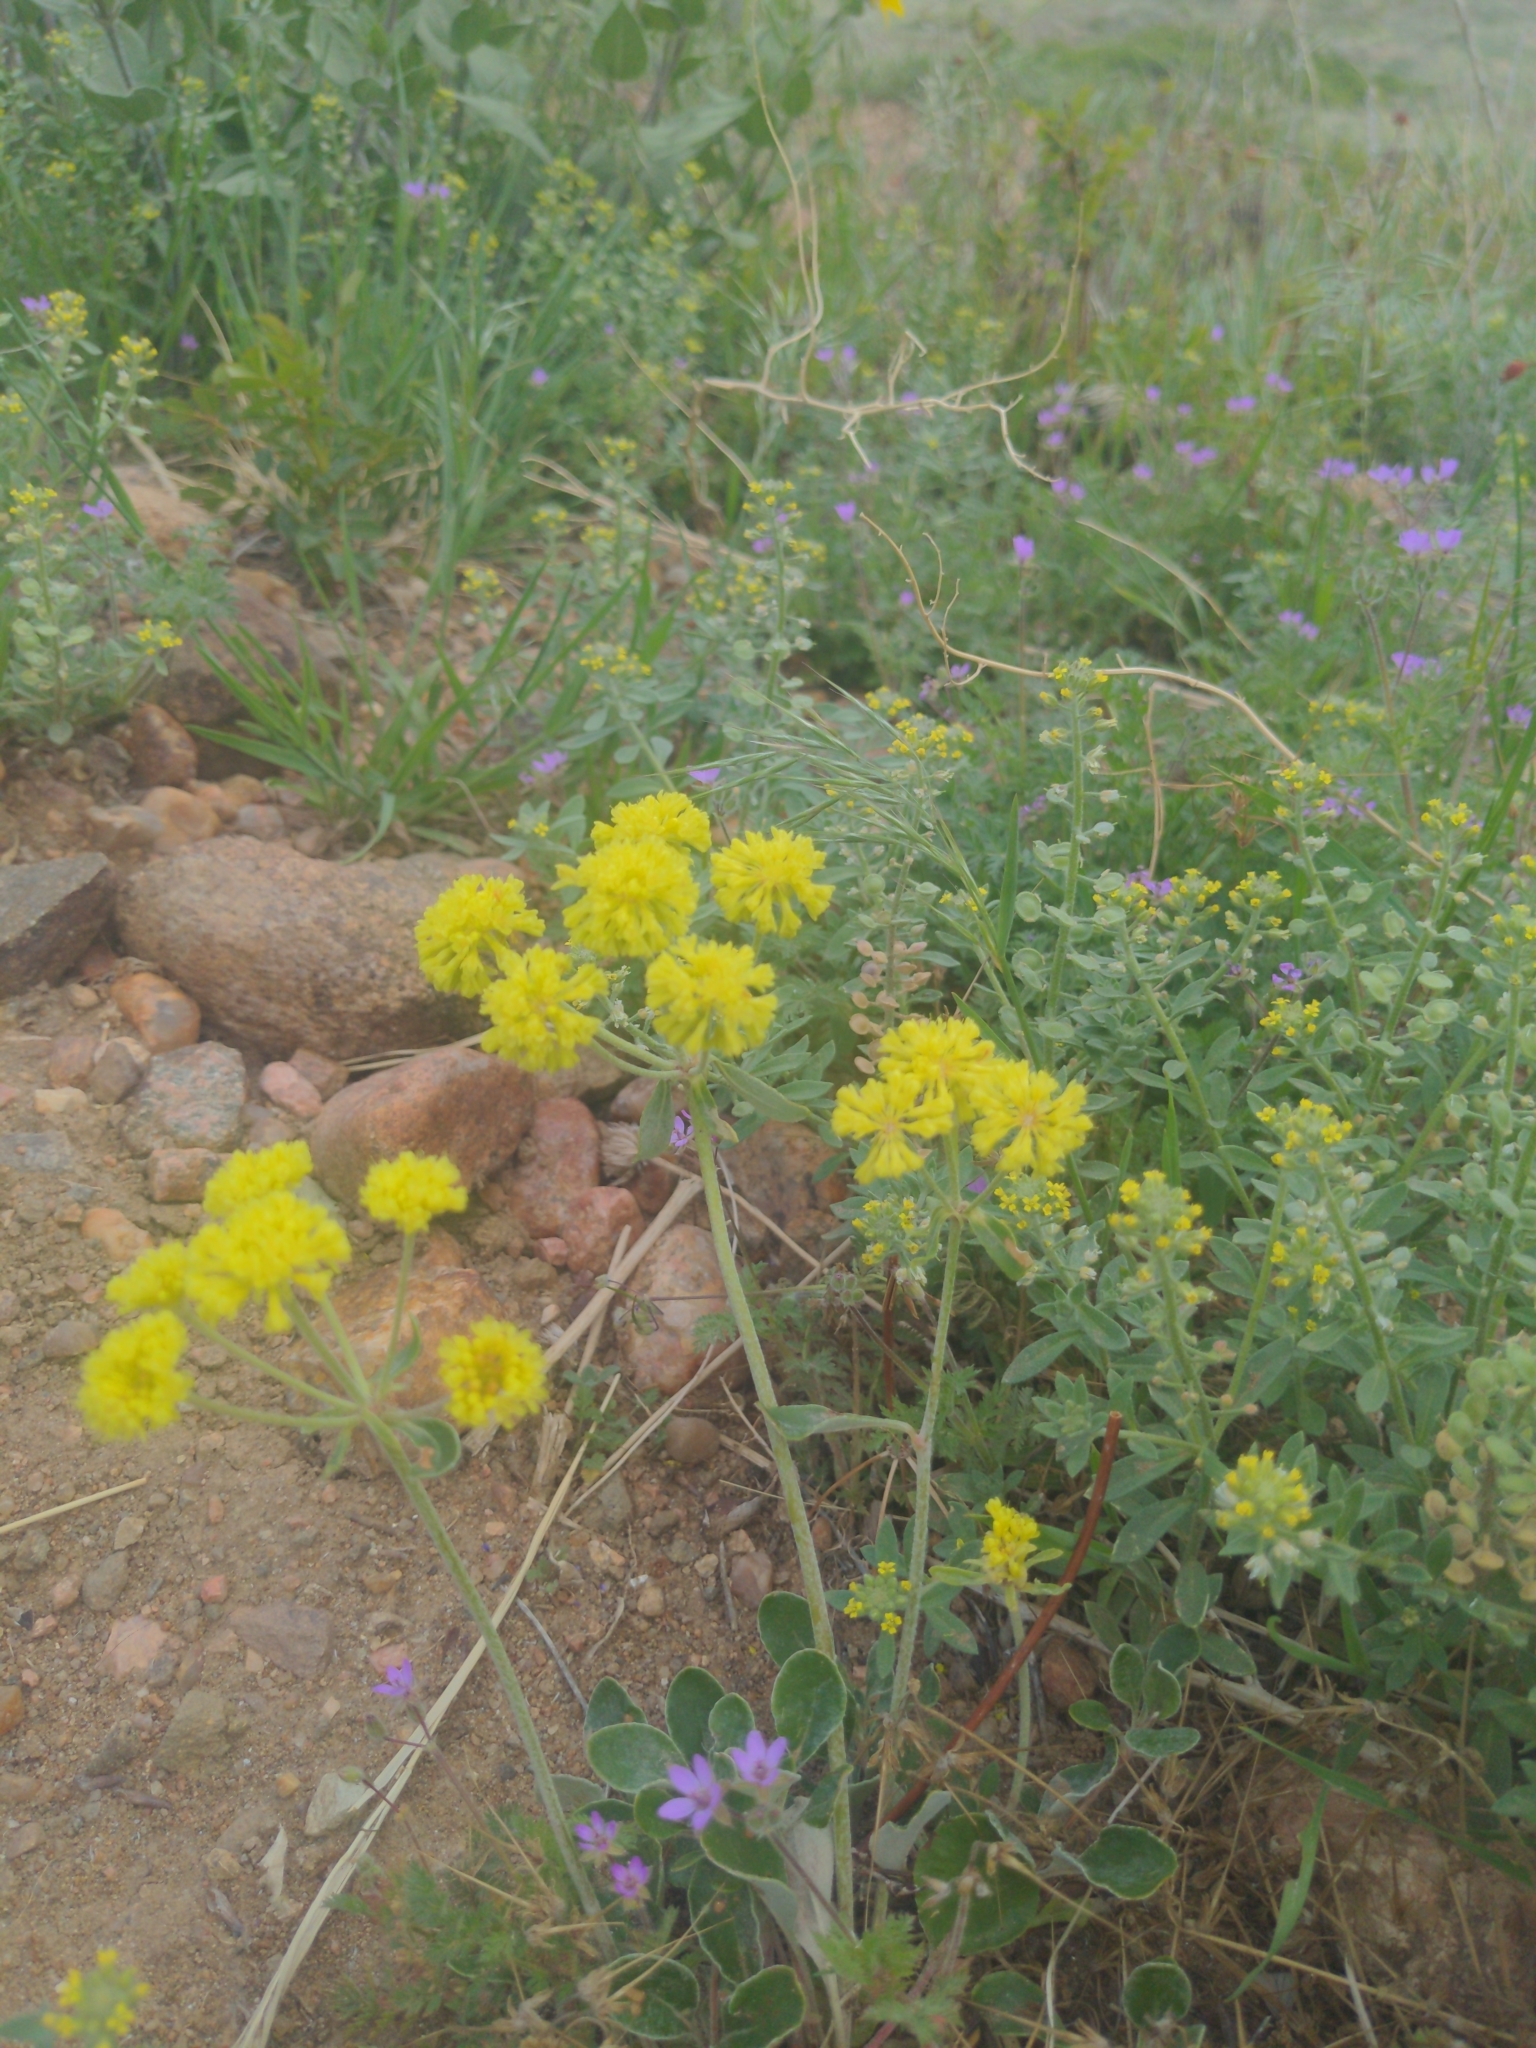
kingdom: Plantae
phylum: Tracheophyta
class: Magnoliopsida
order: Caryophyllales
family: Polygonaceae
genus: Eriogonum
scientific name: Eriogonum umbellatum
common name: Sulfur-buckwheat
